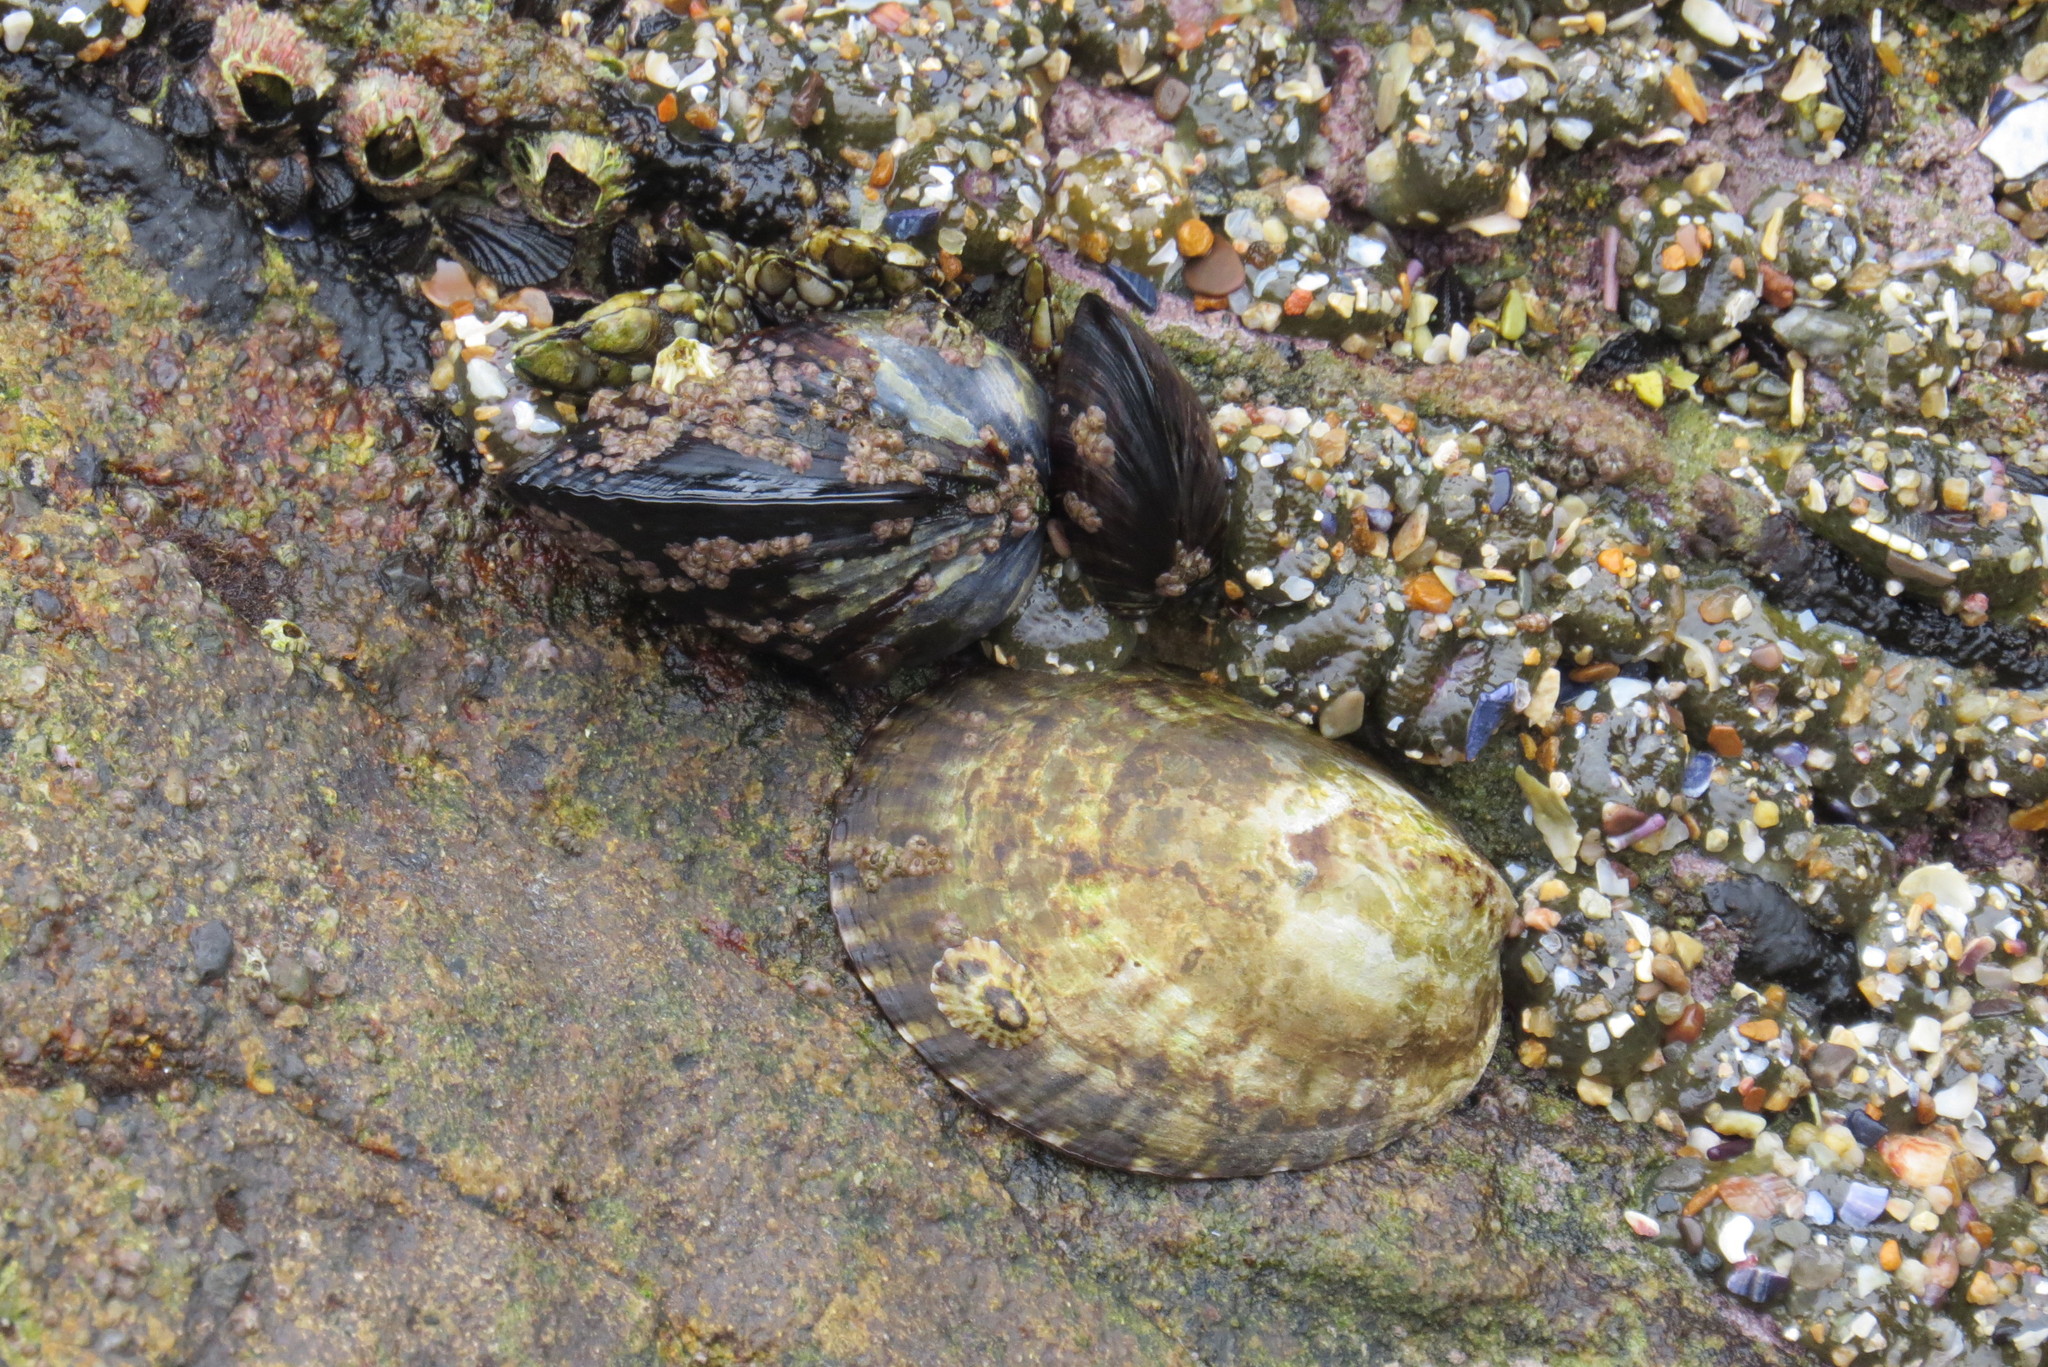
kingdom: Animalia
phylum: Mollusca
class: Gastropoda
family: Lottiidae
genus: Lottia
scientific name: Lottia gigantea
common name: Owl limpet
